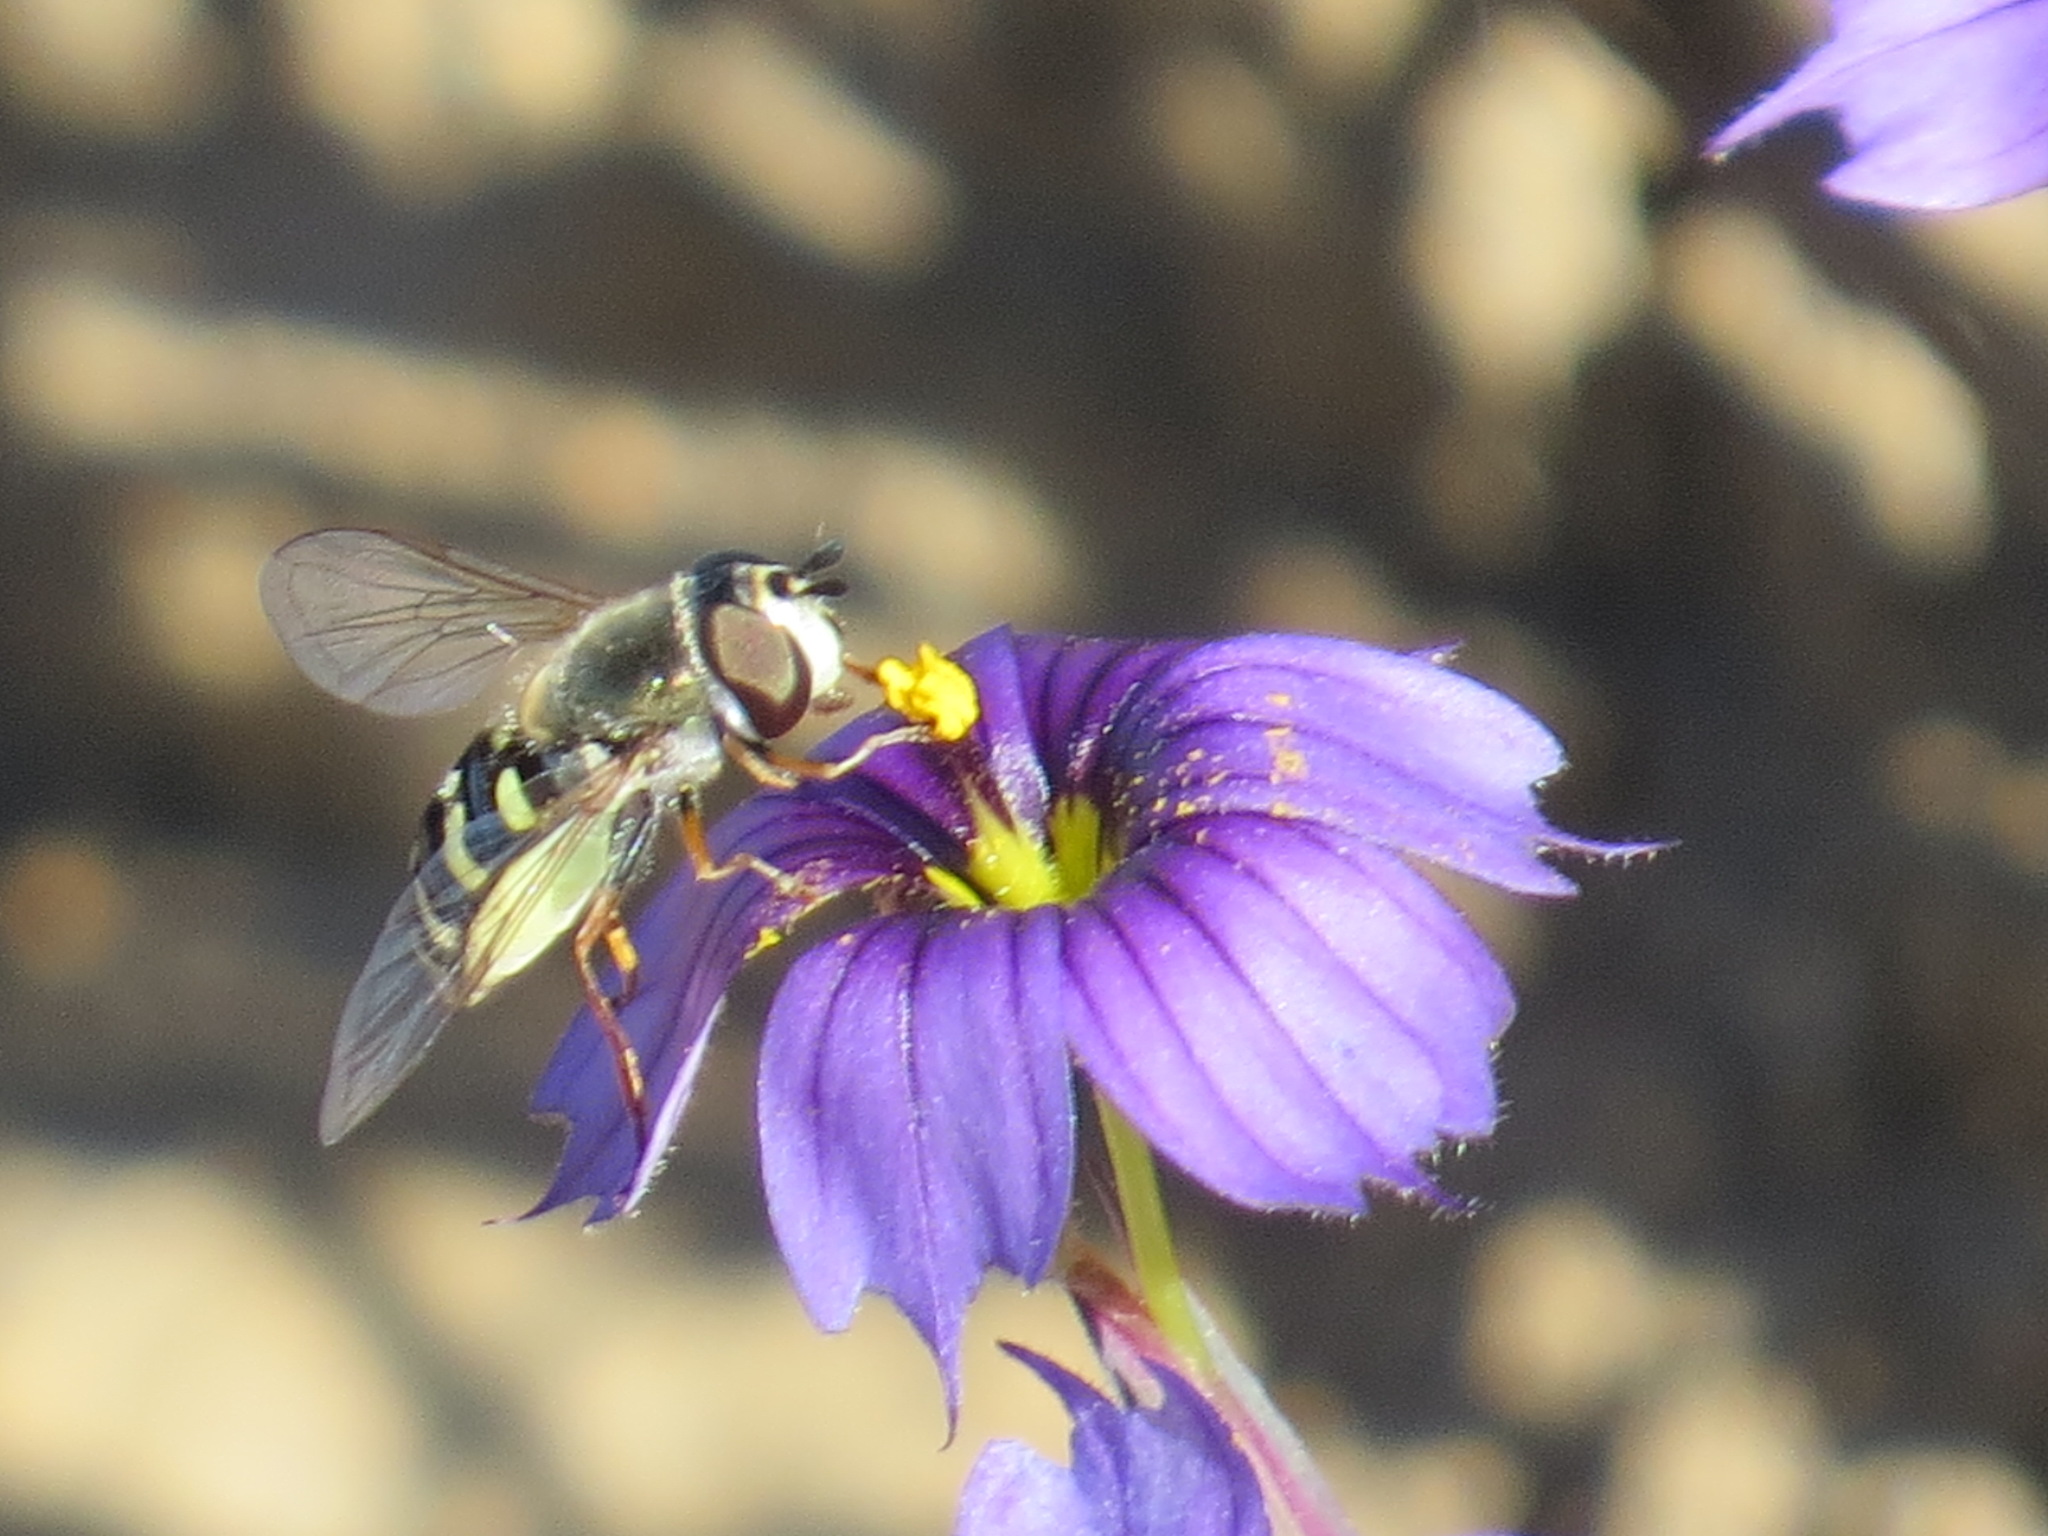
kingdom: Animalia
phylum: Arthropoda
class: Insecta
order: Diptera
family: Syrphidae
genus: Eupeodes
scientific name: Eupeodes volucris
